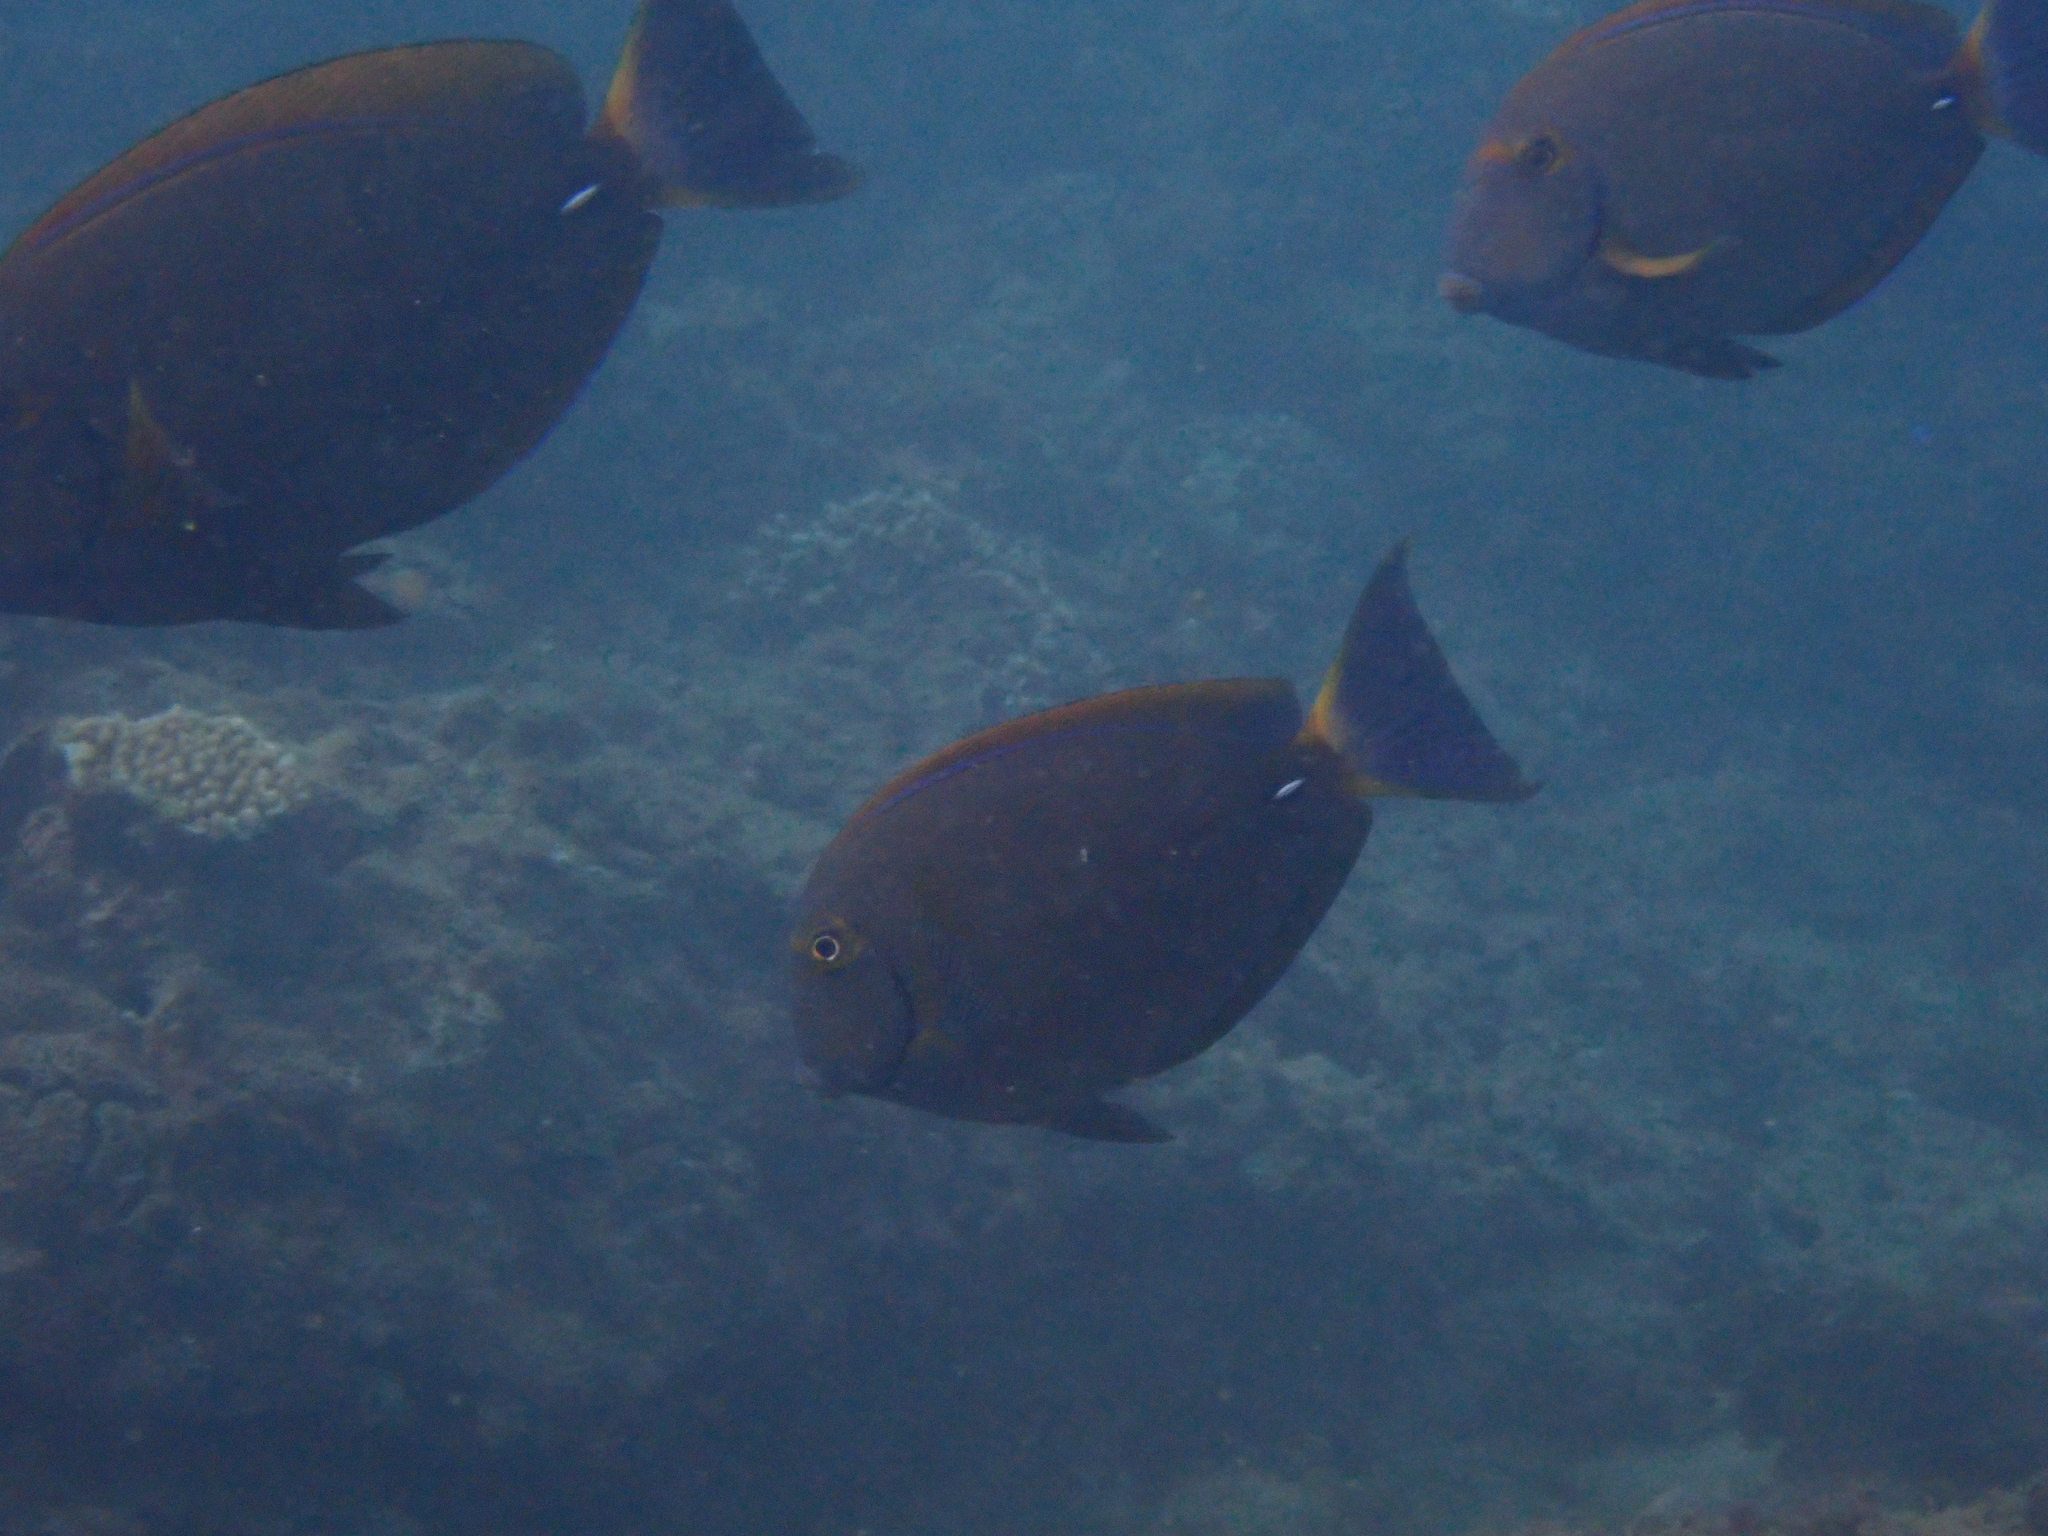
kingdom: Animalia
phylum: Chordata
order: Perciformes
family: Acanthuridae
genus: Acanthurus
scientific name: Acanthurus dussumieri
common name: Dussumier's surgeonfish
